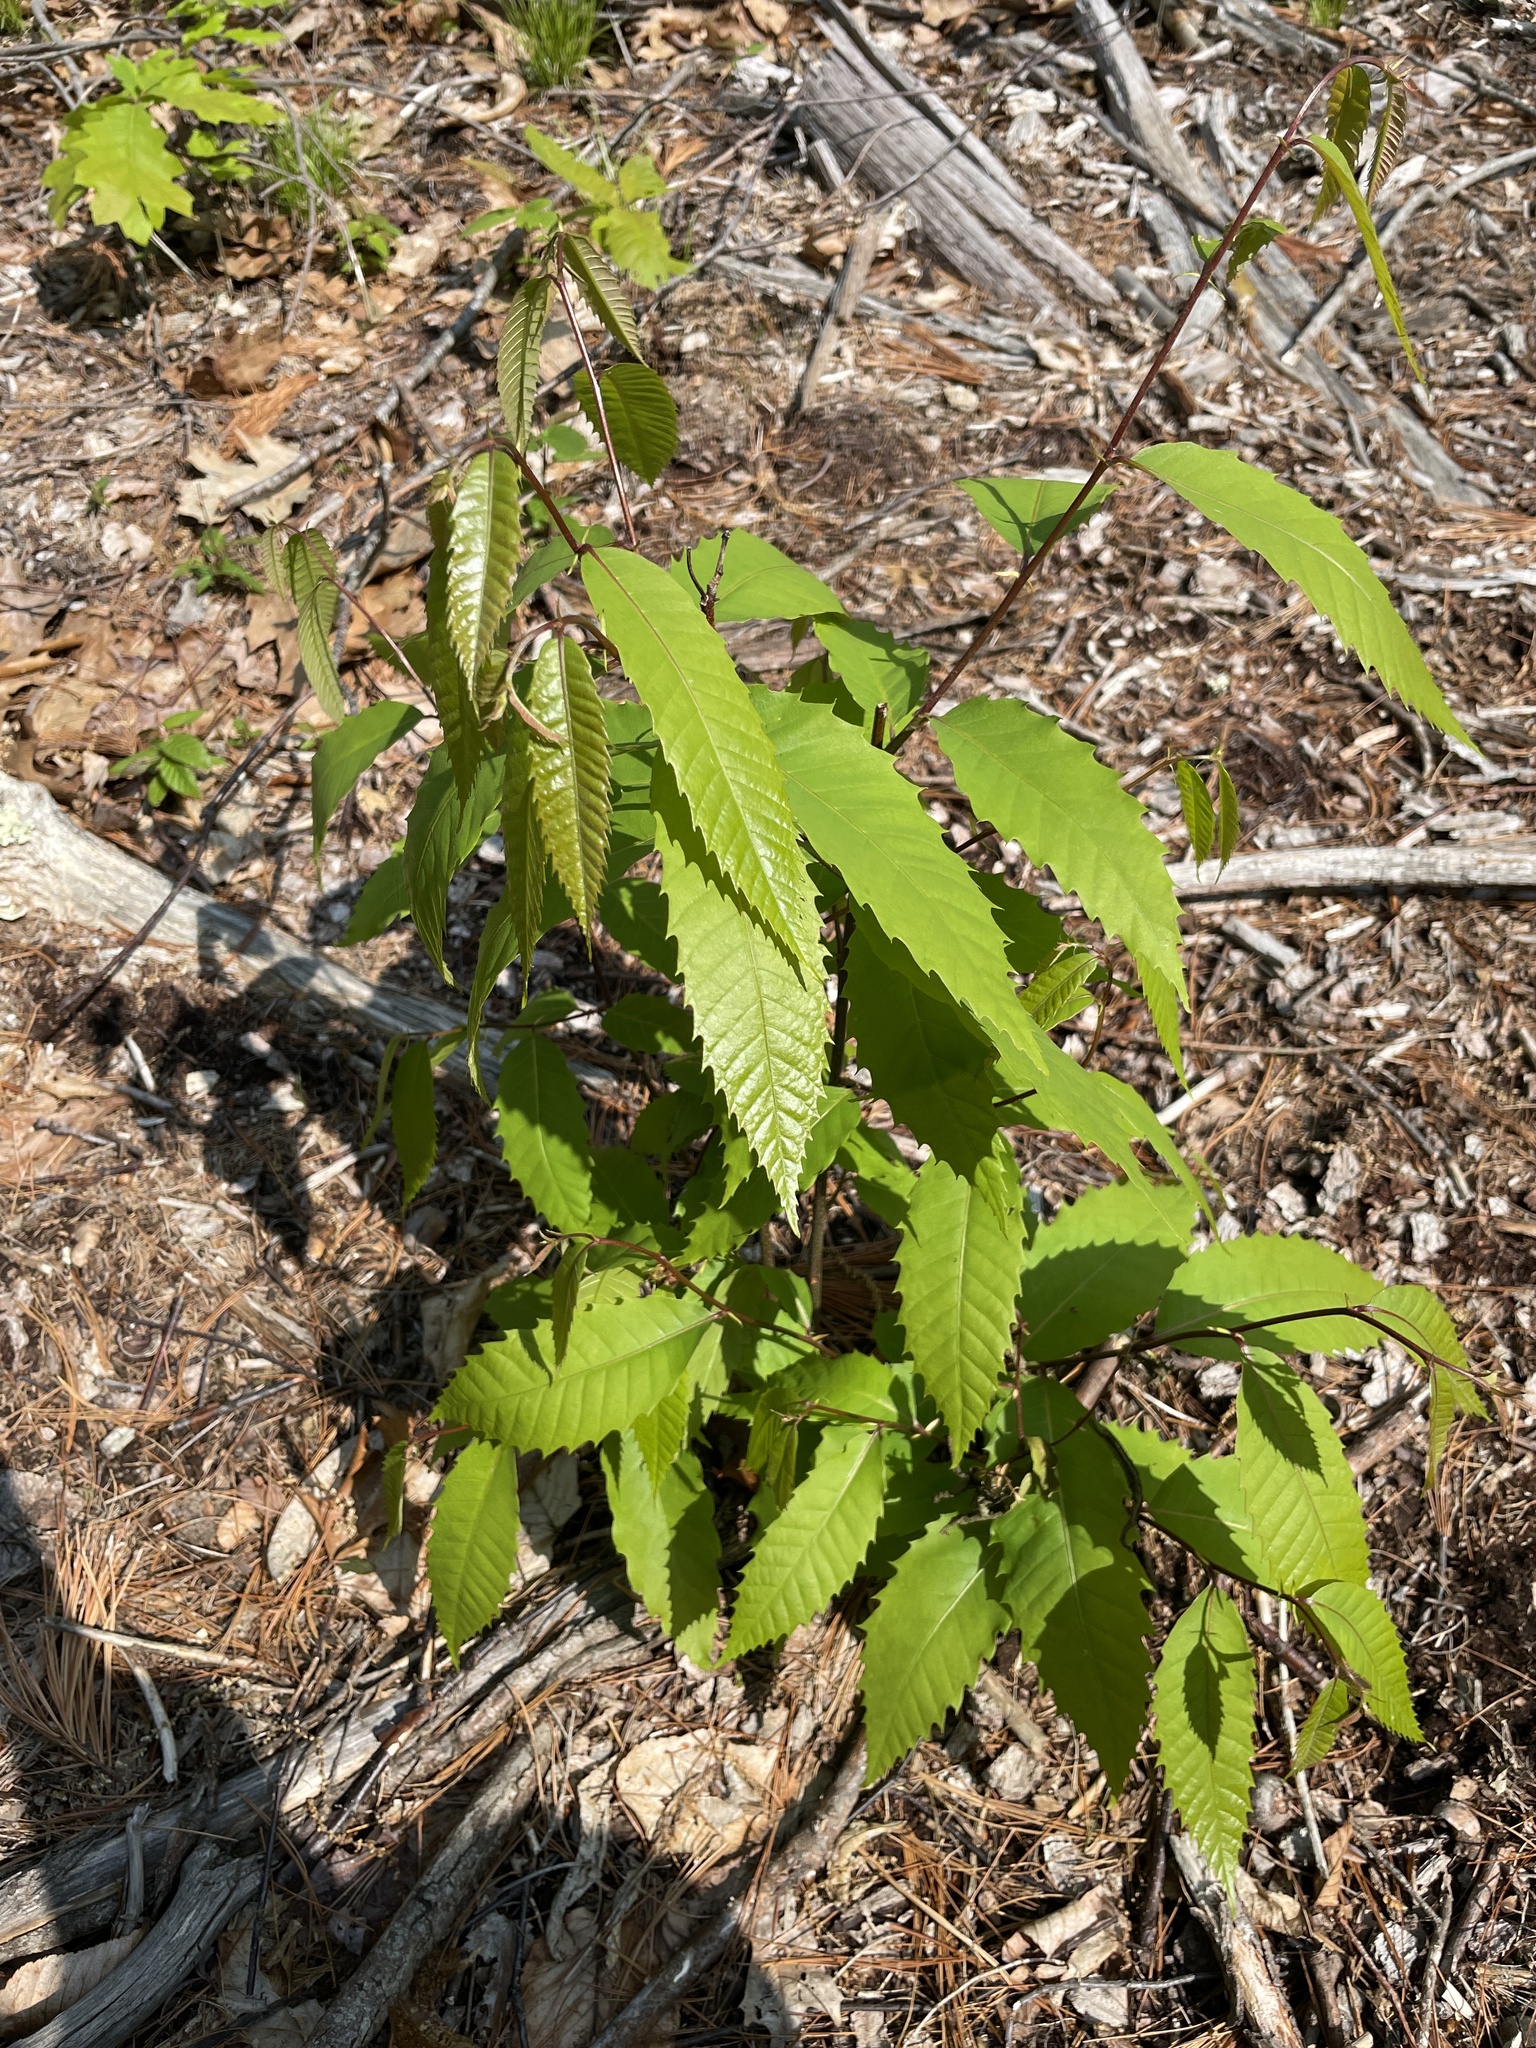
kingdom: Plantae
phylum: Tracheophyta
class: Magnoliopsida
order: Fagales
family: Fagaceae
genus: Castanea
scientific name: Castanea dentata
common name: American chestnut
